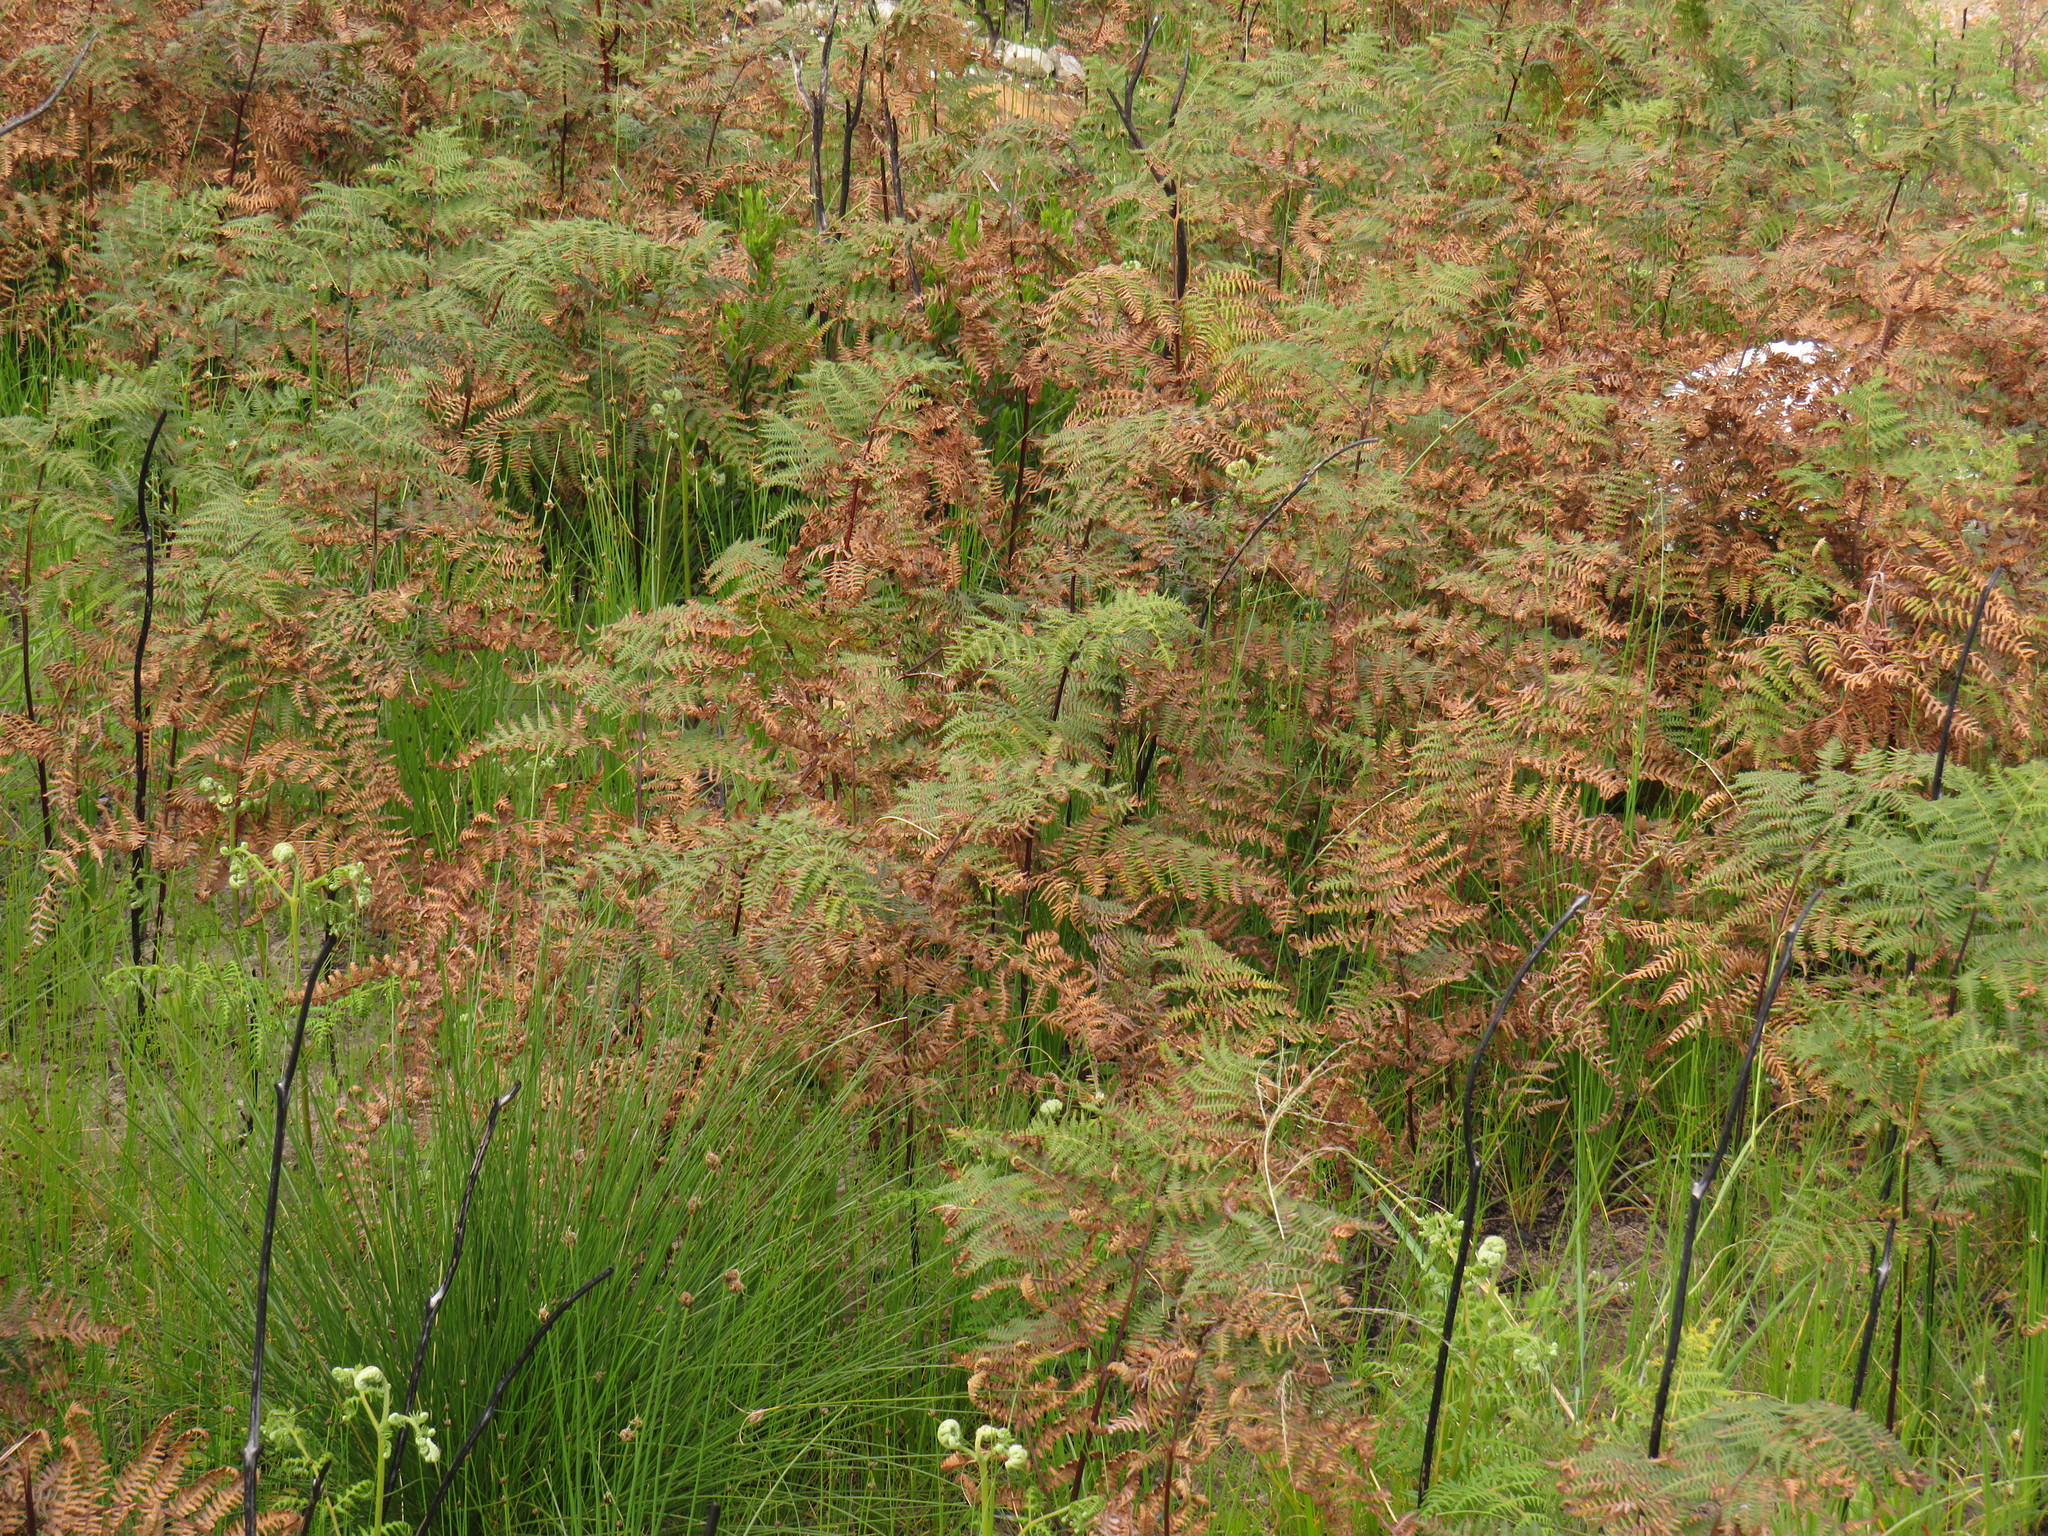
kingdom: Plantae
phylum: Tracheophyta
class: Polypodiopsida
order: Polypodiales
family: Dennstaedtiaceae
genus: Pteridium
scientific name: Pteridium aquilinum
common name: Bracken
